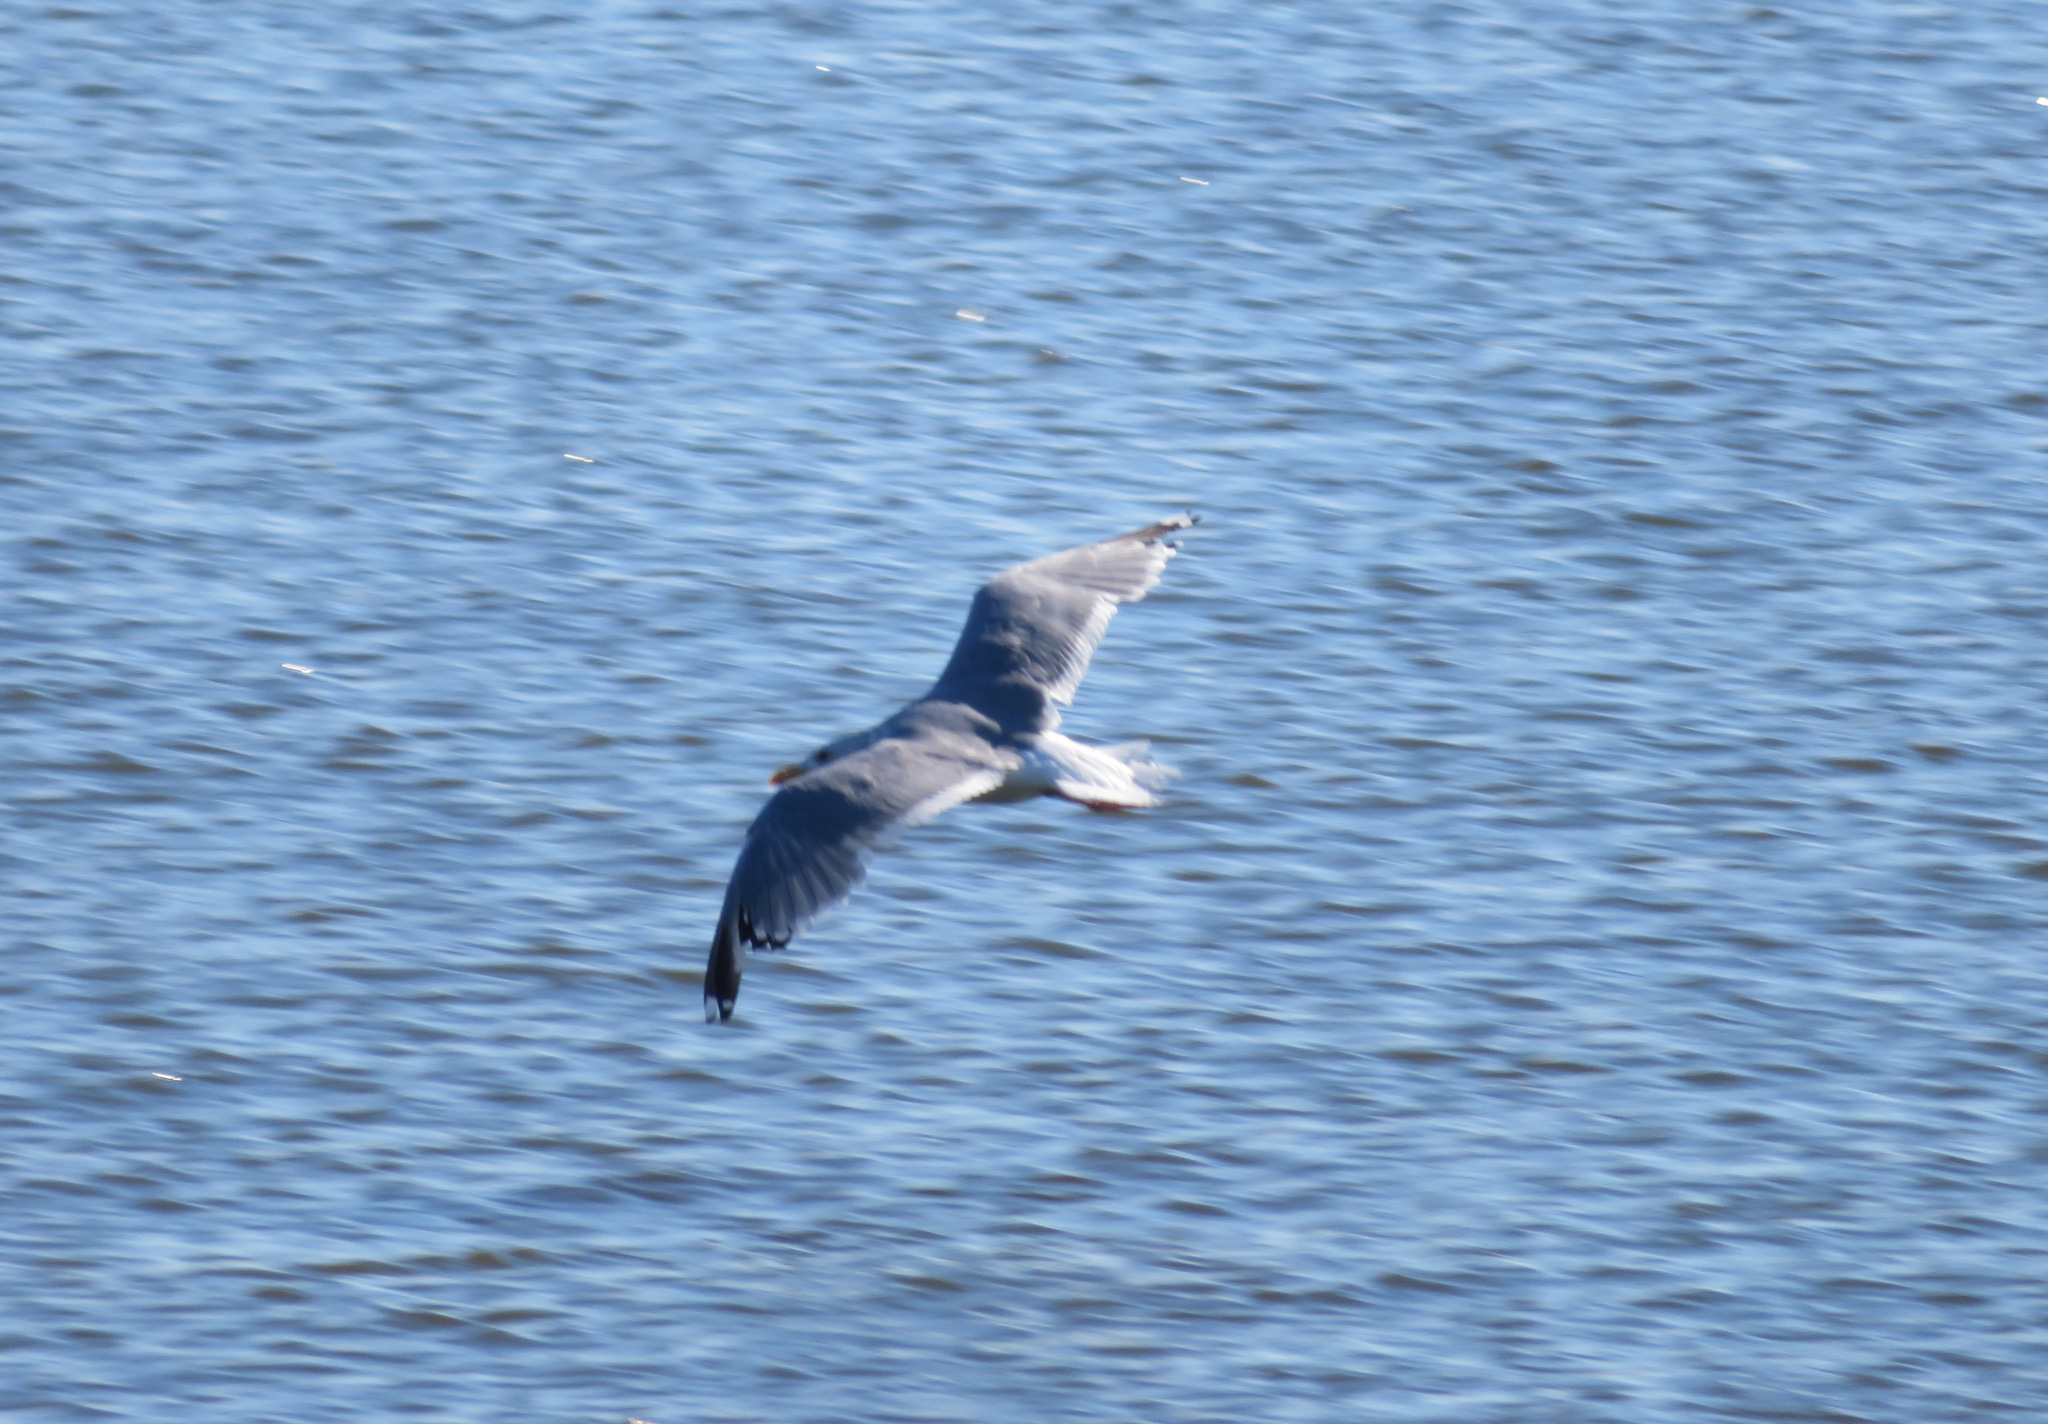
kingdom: Animalia
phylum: Chordata
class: Aves
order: Charadriiformes
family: Laridae
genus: Larus
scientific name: Larus vegae
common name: Vega gull
